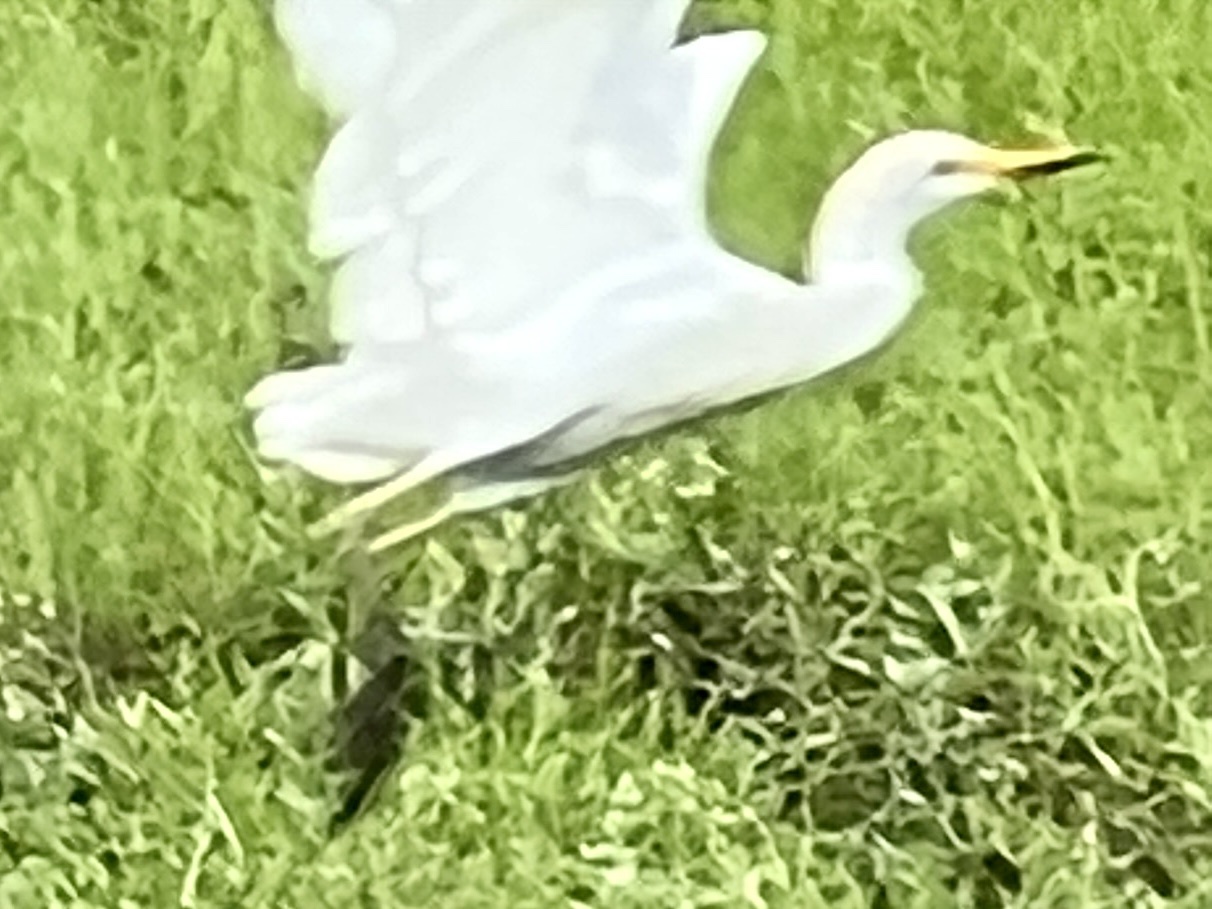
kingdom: Animalia
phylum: Chordata
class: Aves
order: Pelecaniformes
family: Ardeidae
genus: Bubulcus
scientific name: Bubulcus ibis
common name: Cattle egret
